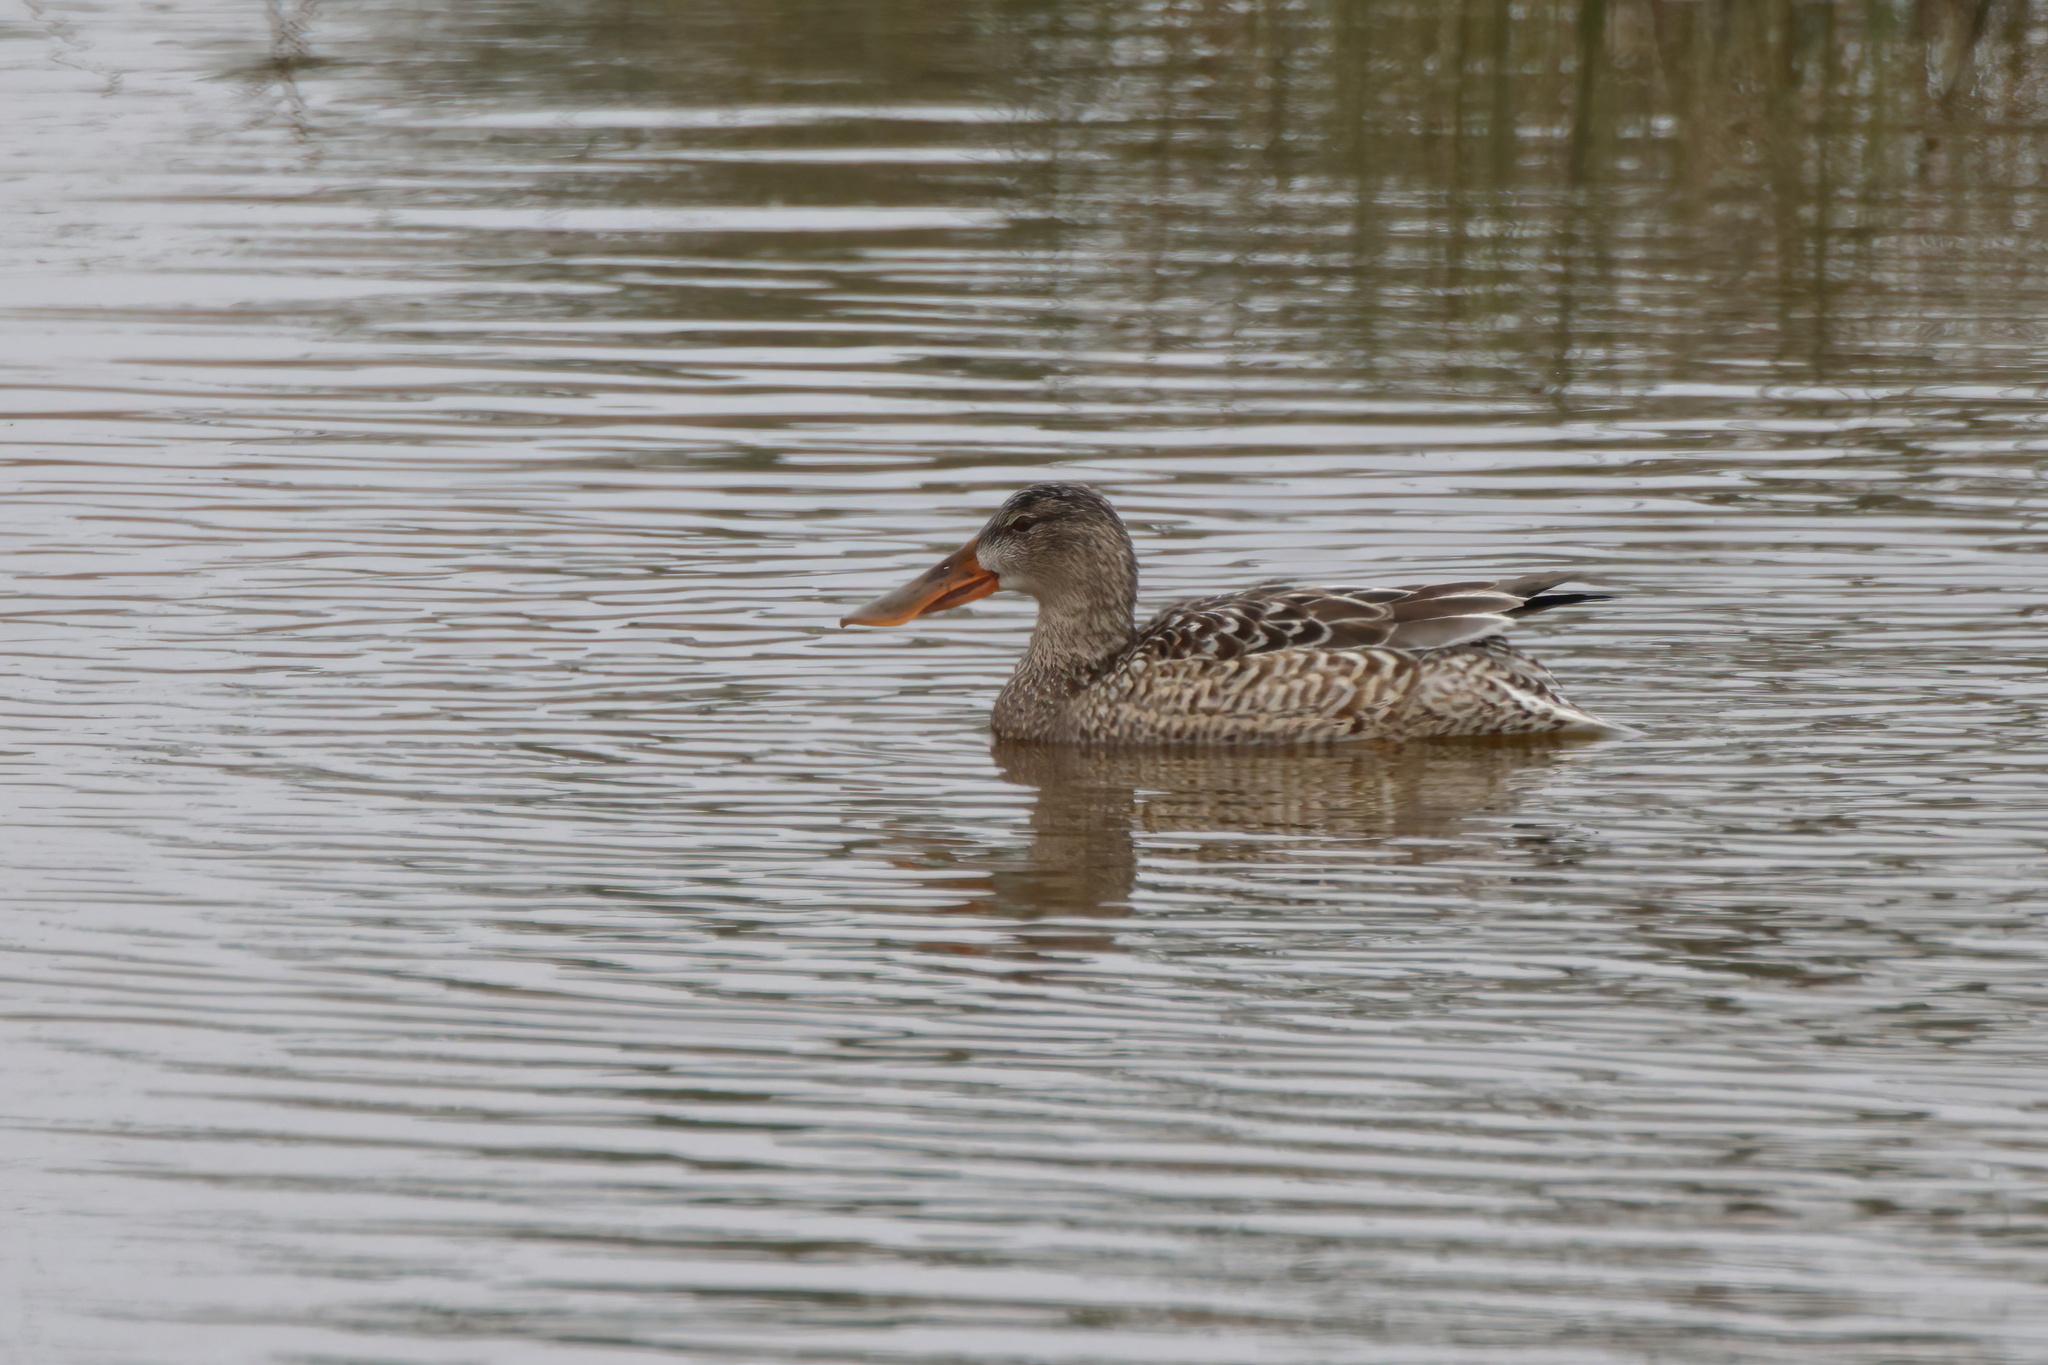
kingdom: Animalia
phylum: Chordata
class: Aves
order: Anseriformes
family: Anatidae
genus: Spatula
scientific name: Spatula clypeata
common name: Northern shoveler
